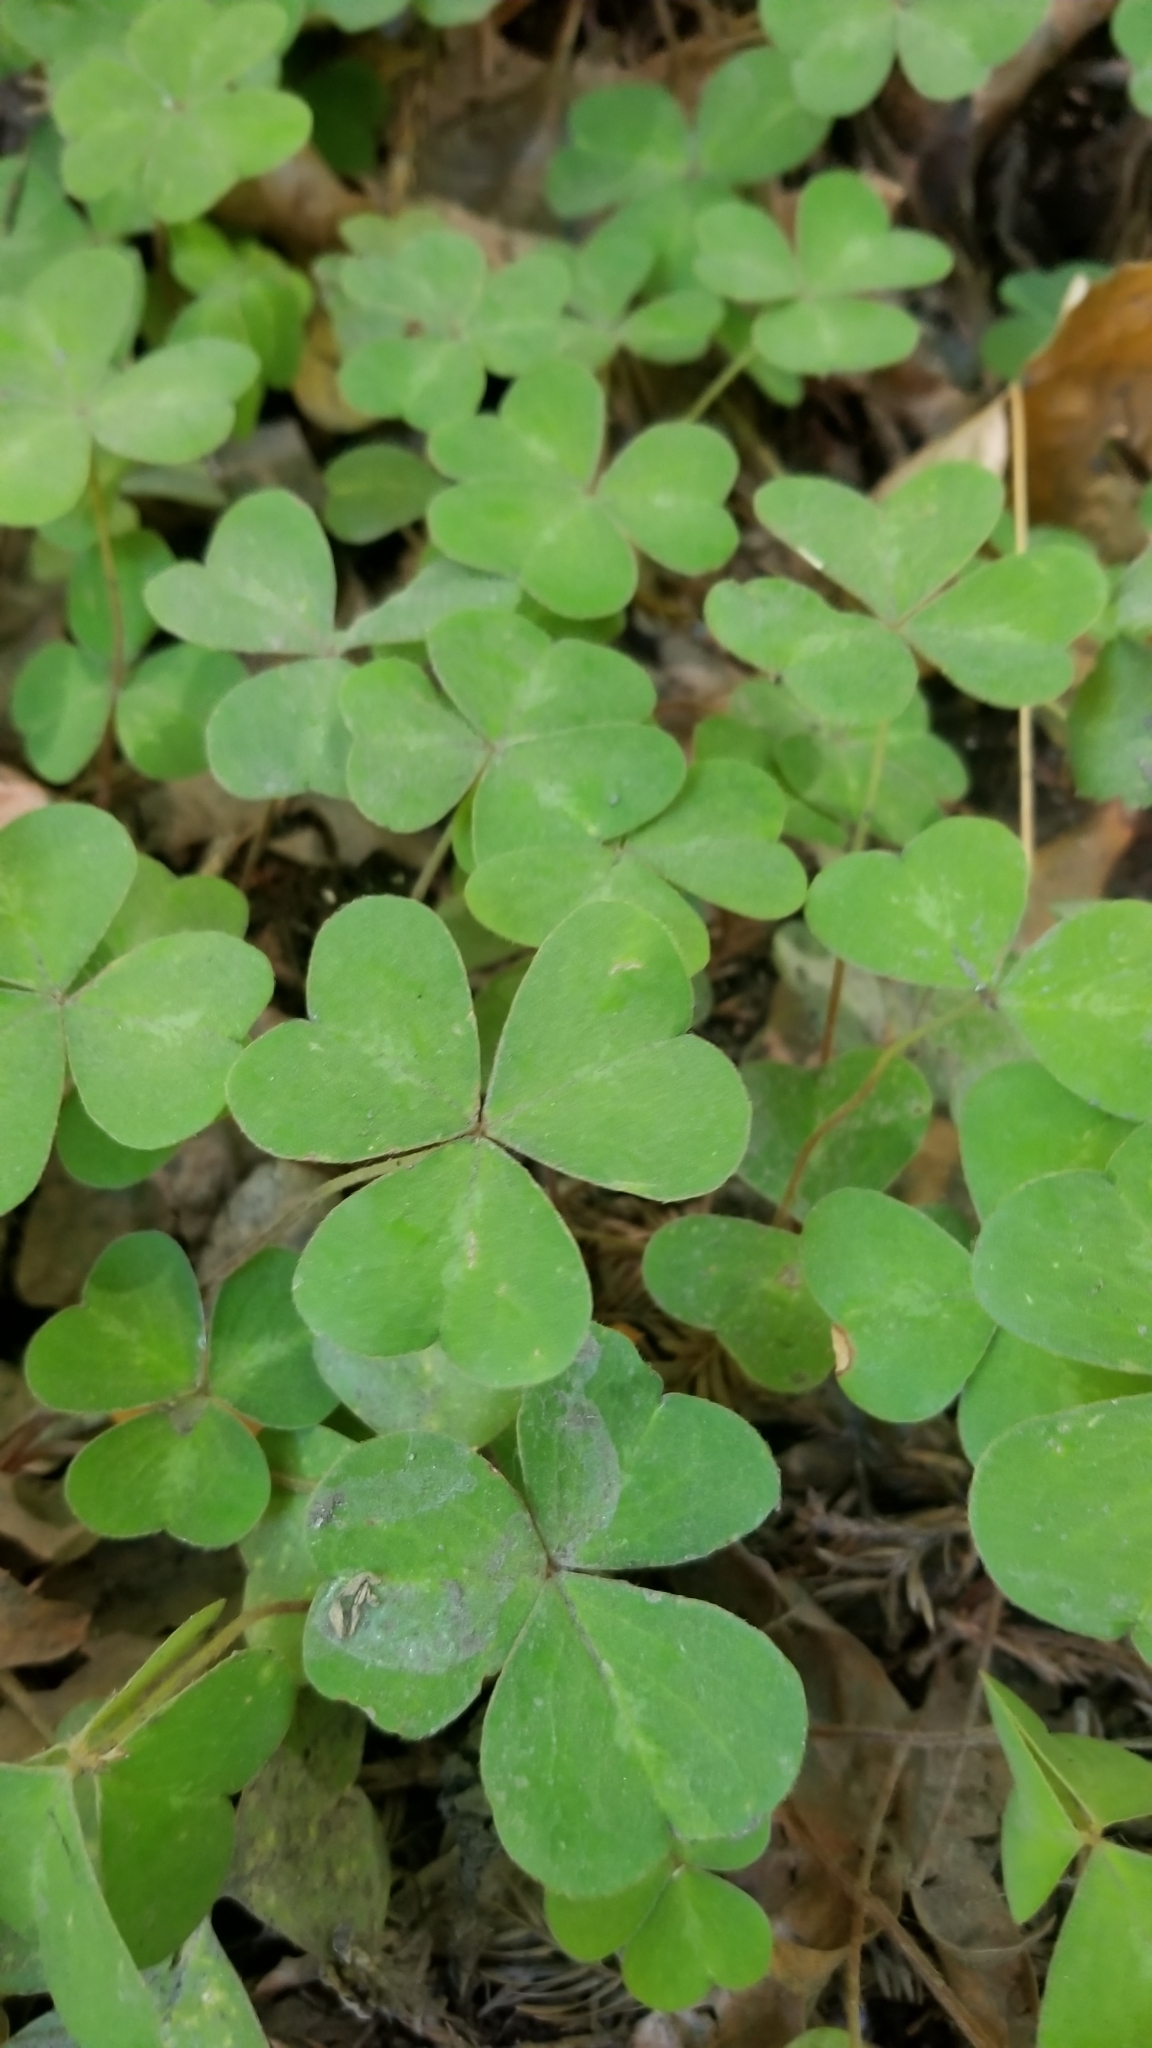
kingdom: Plantae
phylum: Tracheophyta
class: Magnoliopsida
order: Oxalidales
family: Oxalidaceae
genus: Oxalis
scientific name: Oxalis oregana
